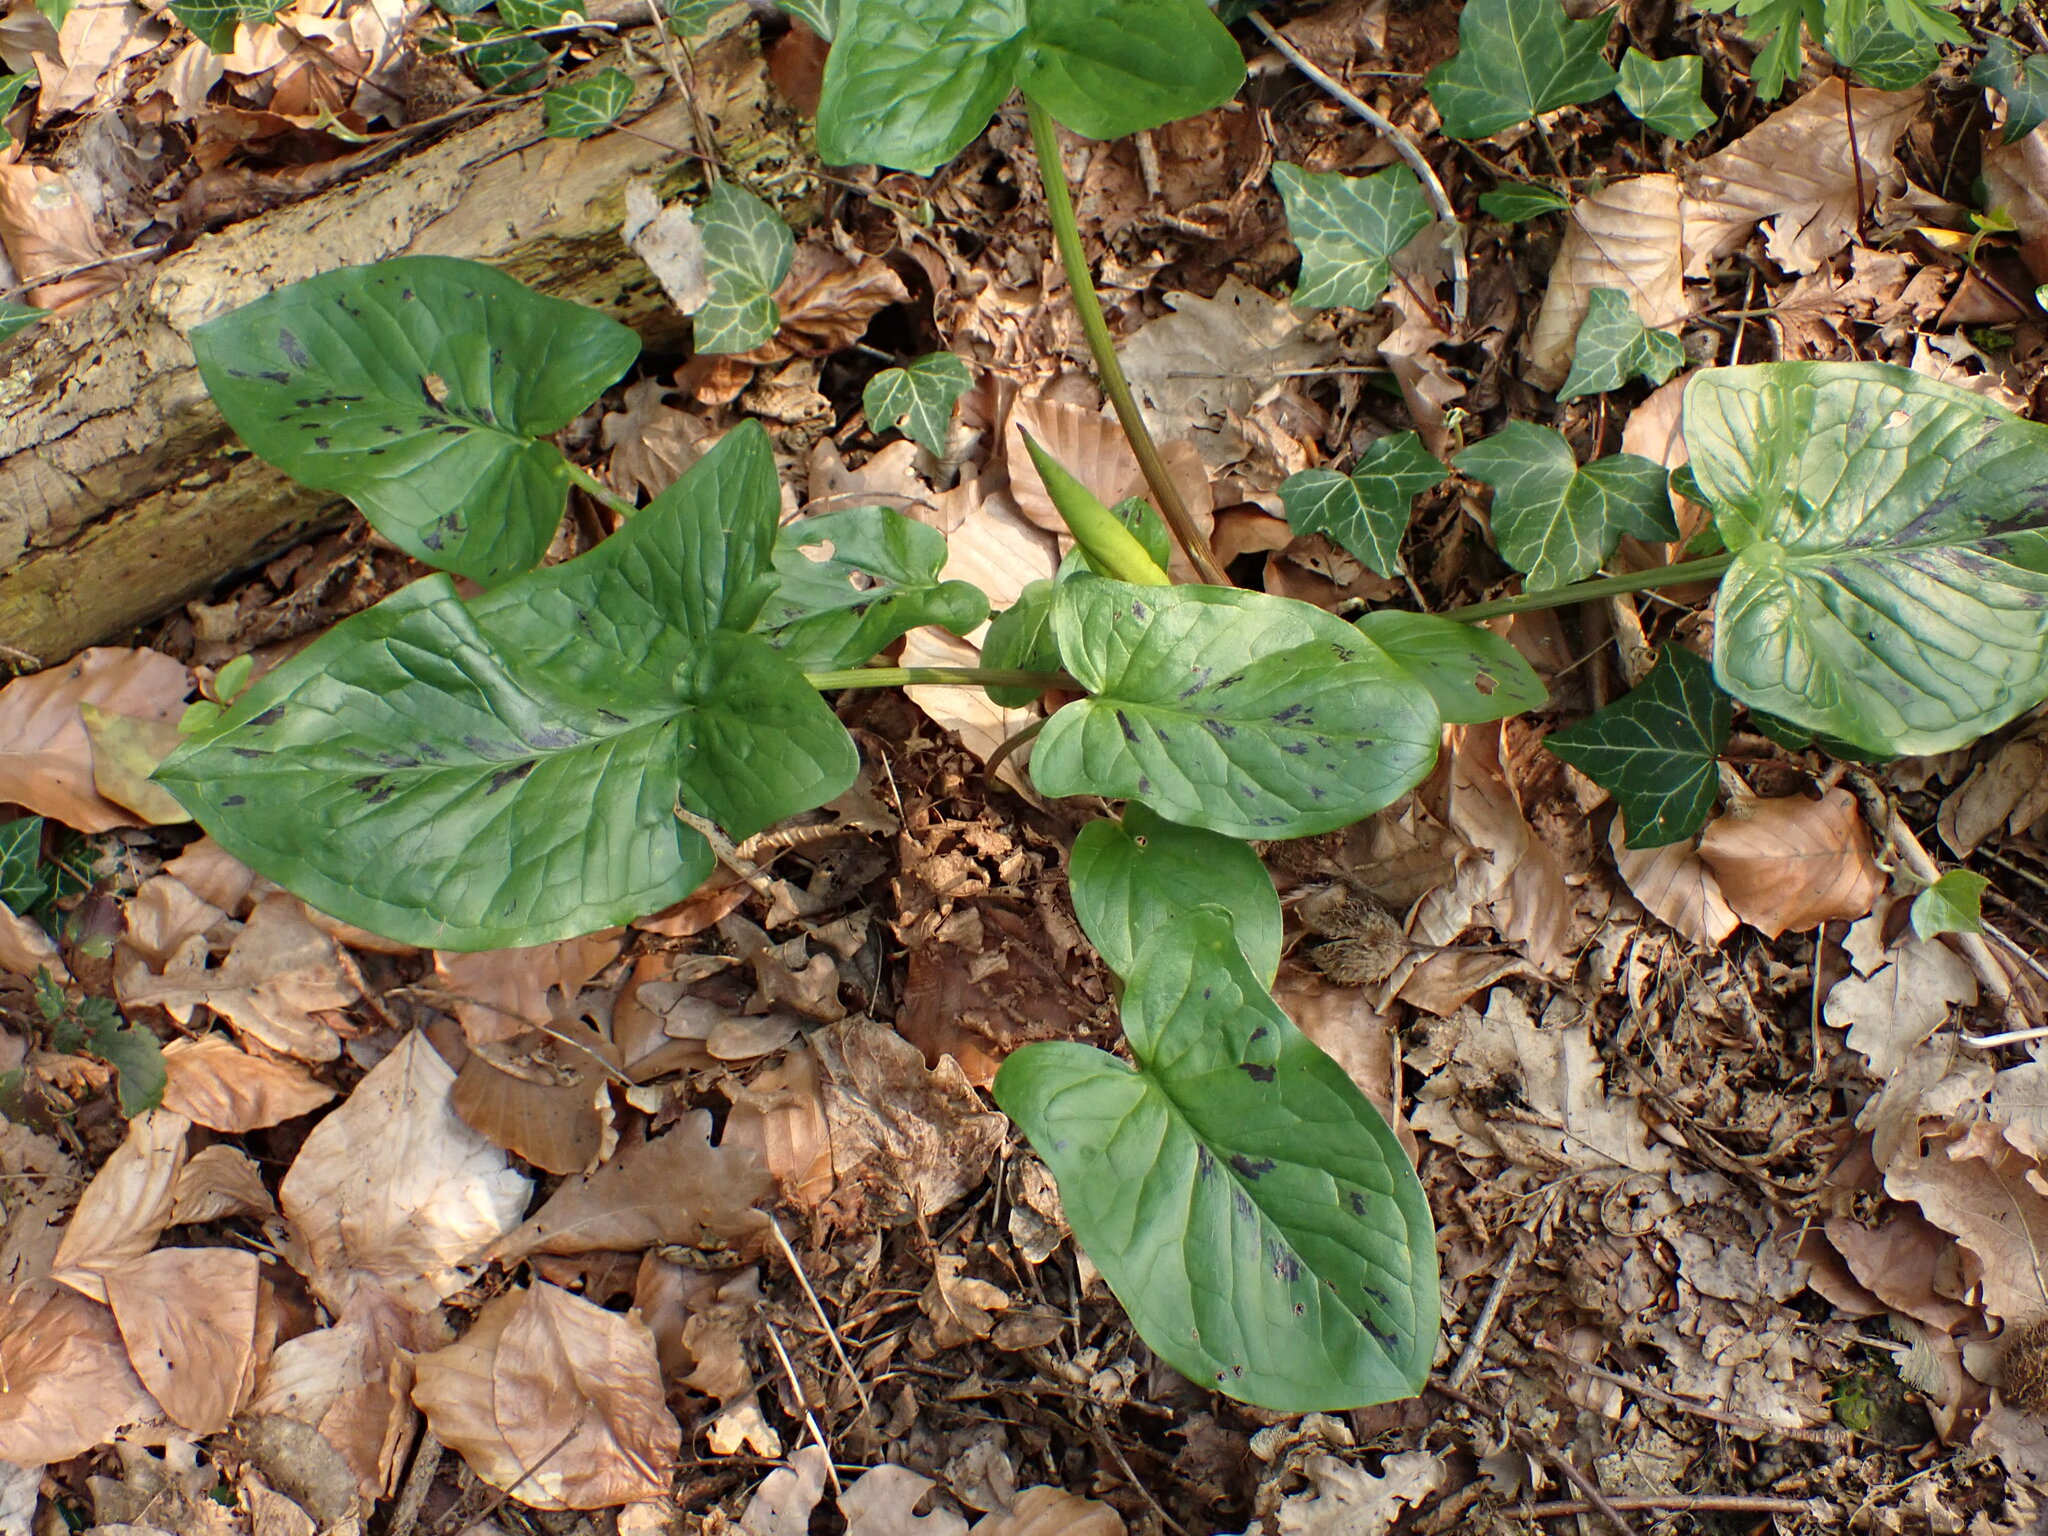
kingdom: Plantae
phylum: Tracheophyta
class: Liliopsida
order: Alismatales
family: Araceae
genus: Arum
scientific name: Arum maculatum
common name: Lords-and-ladies
